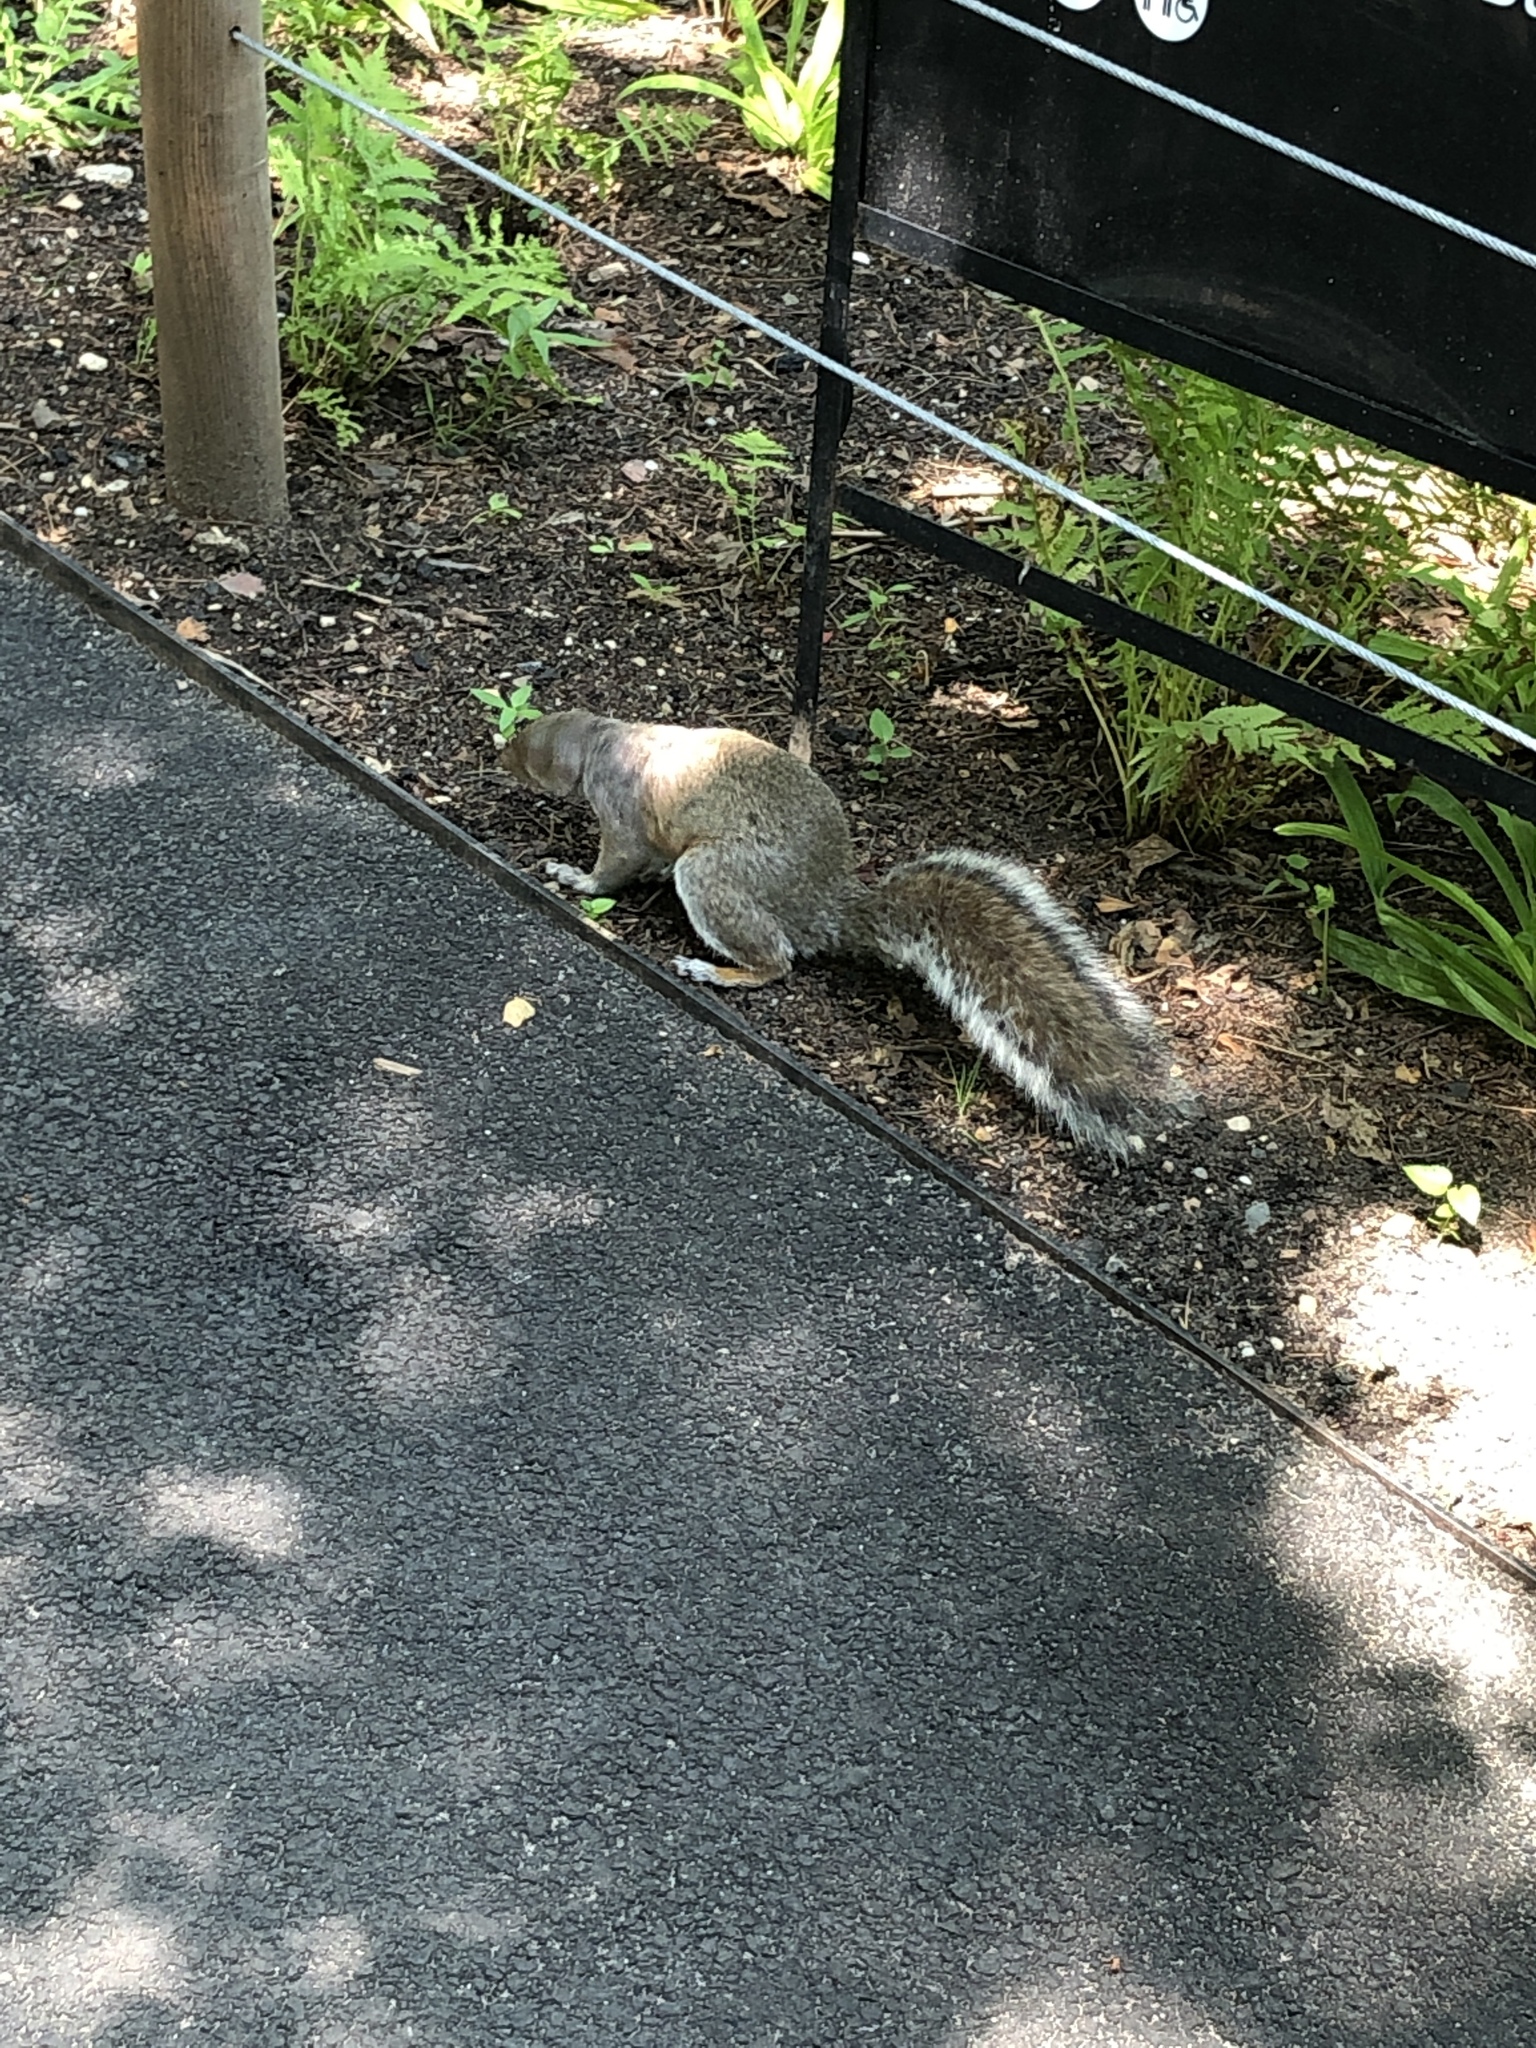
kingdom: Animalia
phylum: Chordata
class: Mammalia
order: Rodentia
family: Sciuridae
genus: Sciurus
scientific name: Sciurus carolinensis
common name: Eastern gray squirrel
